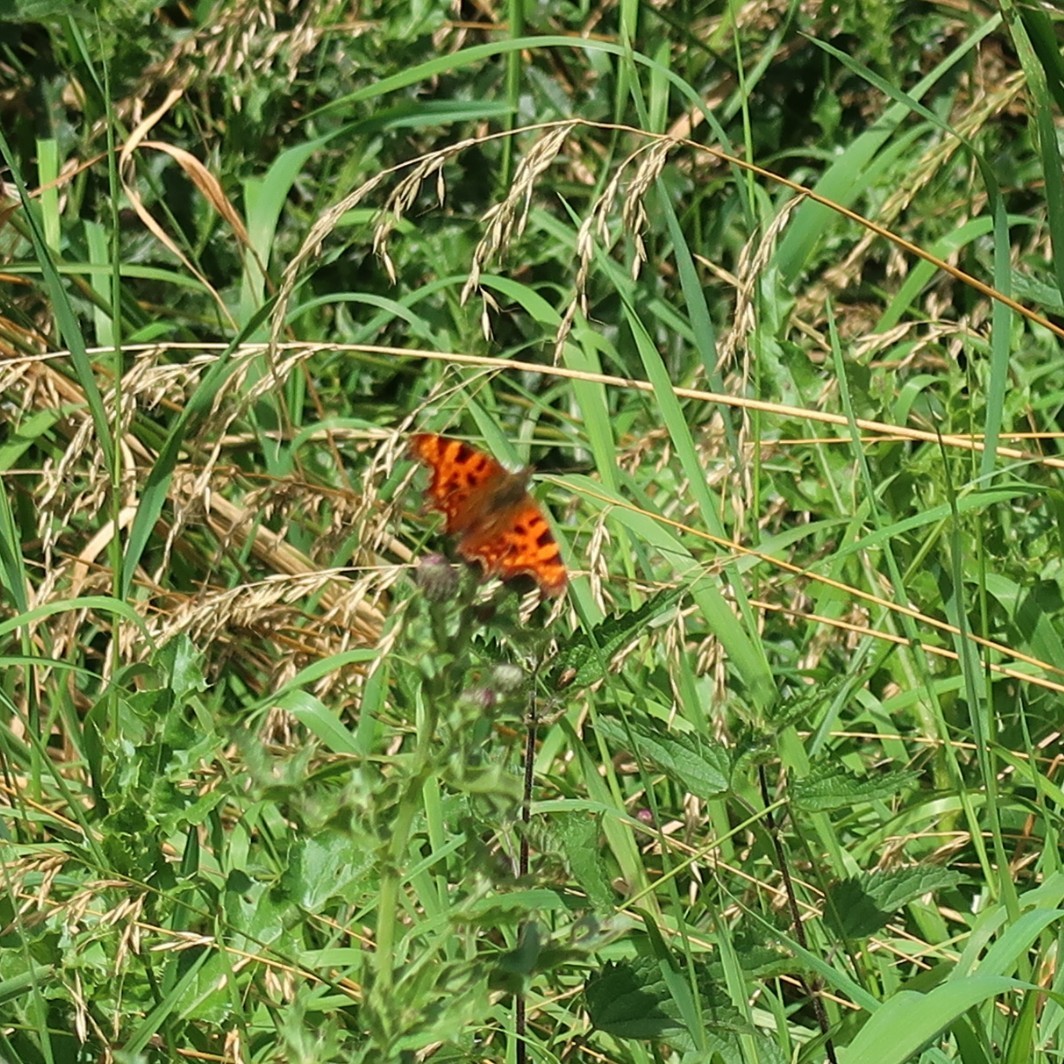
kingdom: Animalia
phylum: Arthropoda
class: Insecta
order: Lepidoptera
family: Nymphalidae
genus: Polygonia
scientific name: Polygonia c-album
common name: Comma
